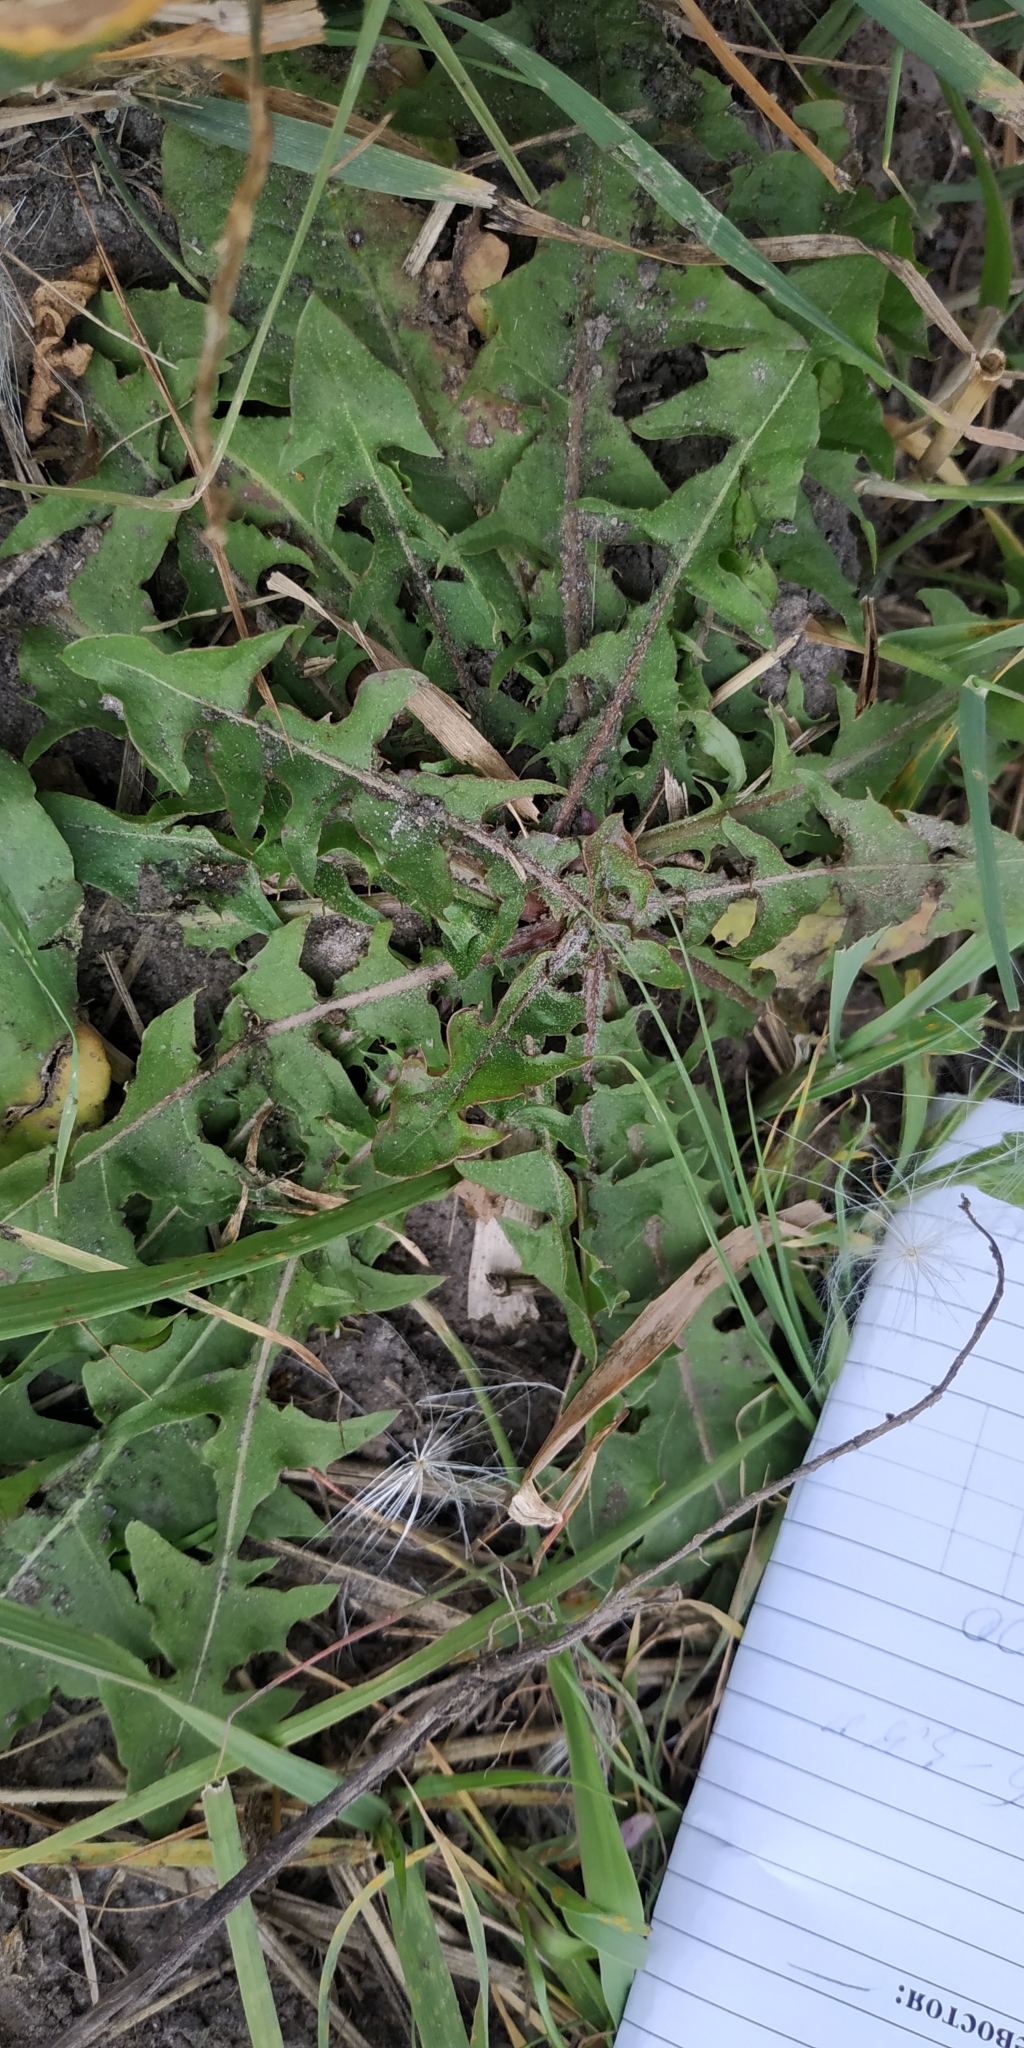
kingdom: Plantae
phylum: Tracheophyta
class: Magnoliopsida
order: Asterales
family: Asteraceae
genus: Taraxacum
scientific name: Taraxacum officinale
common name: Common dandelion
